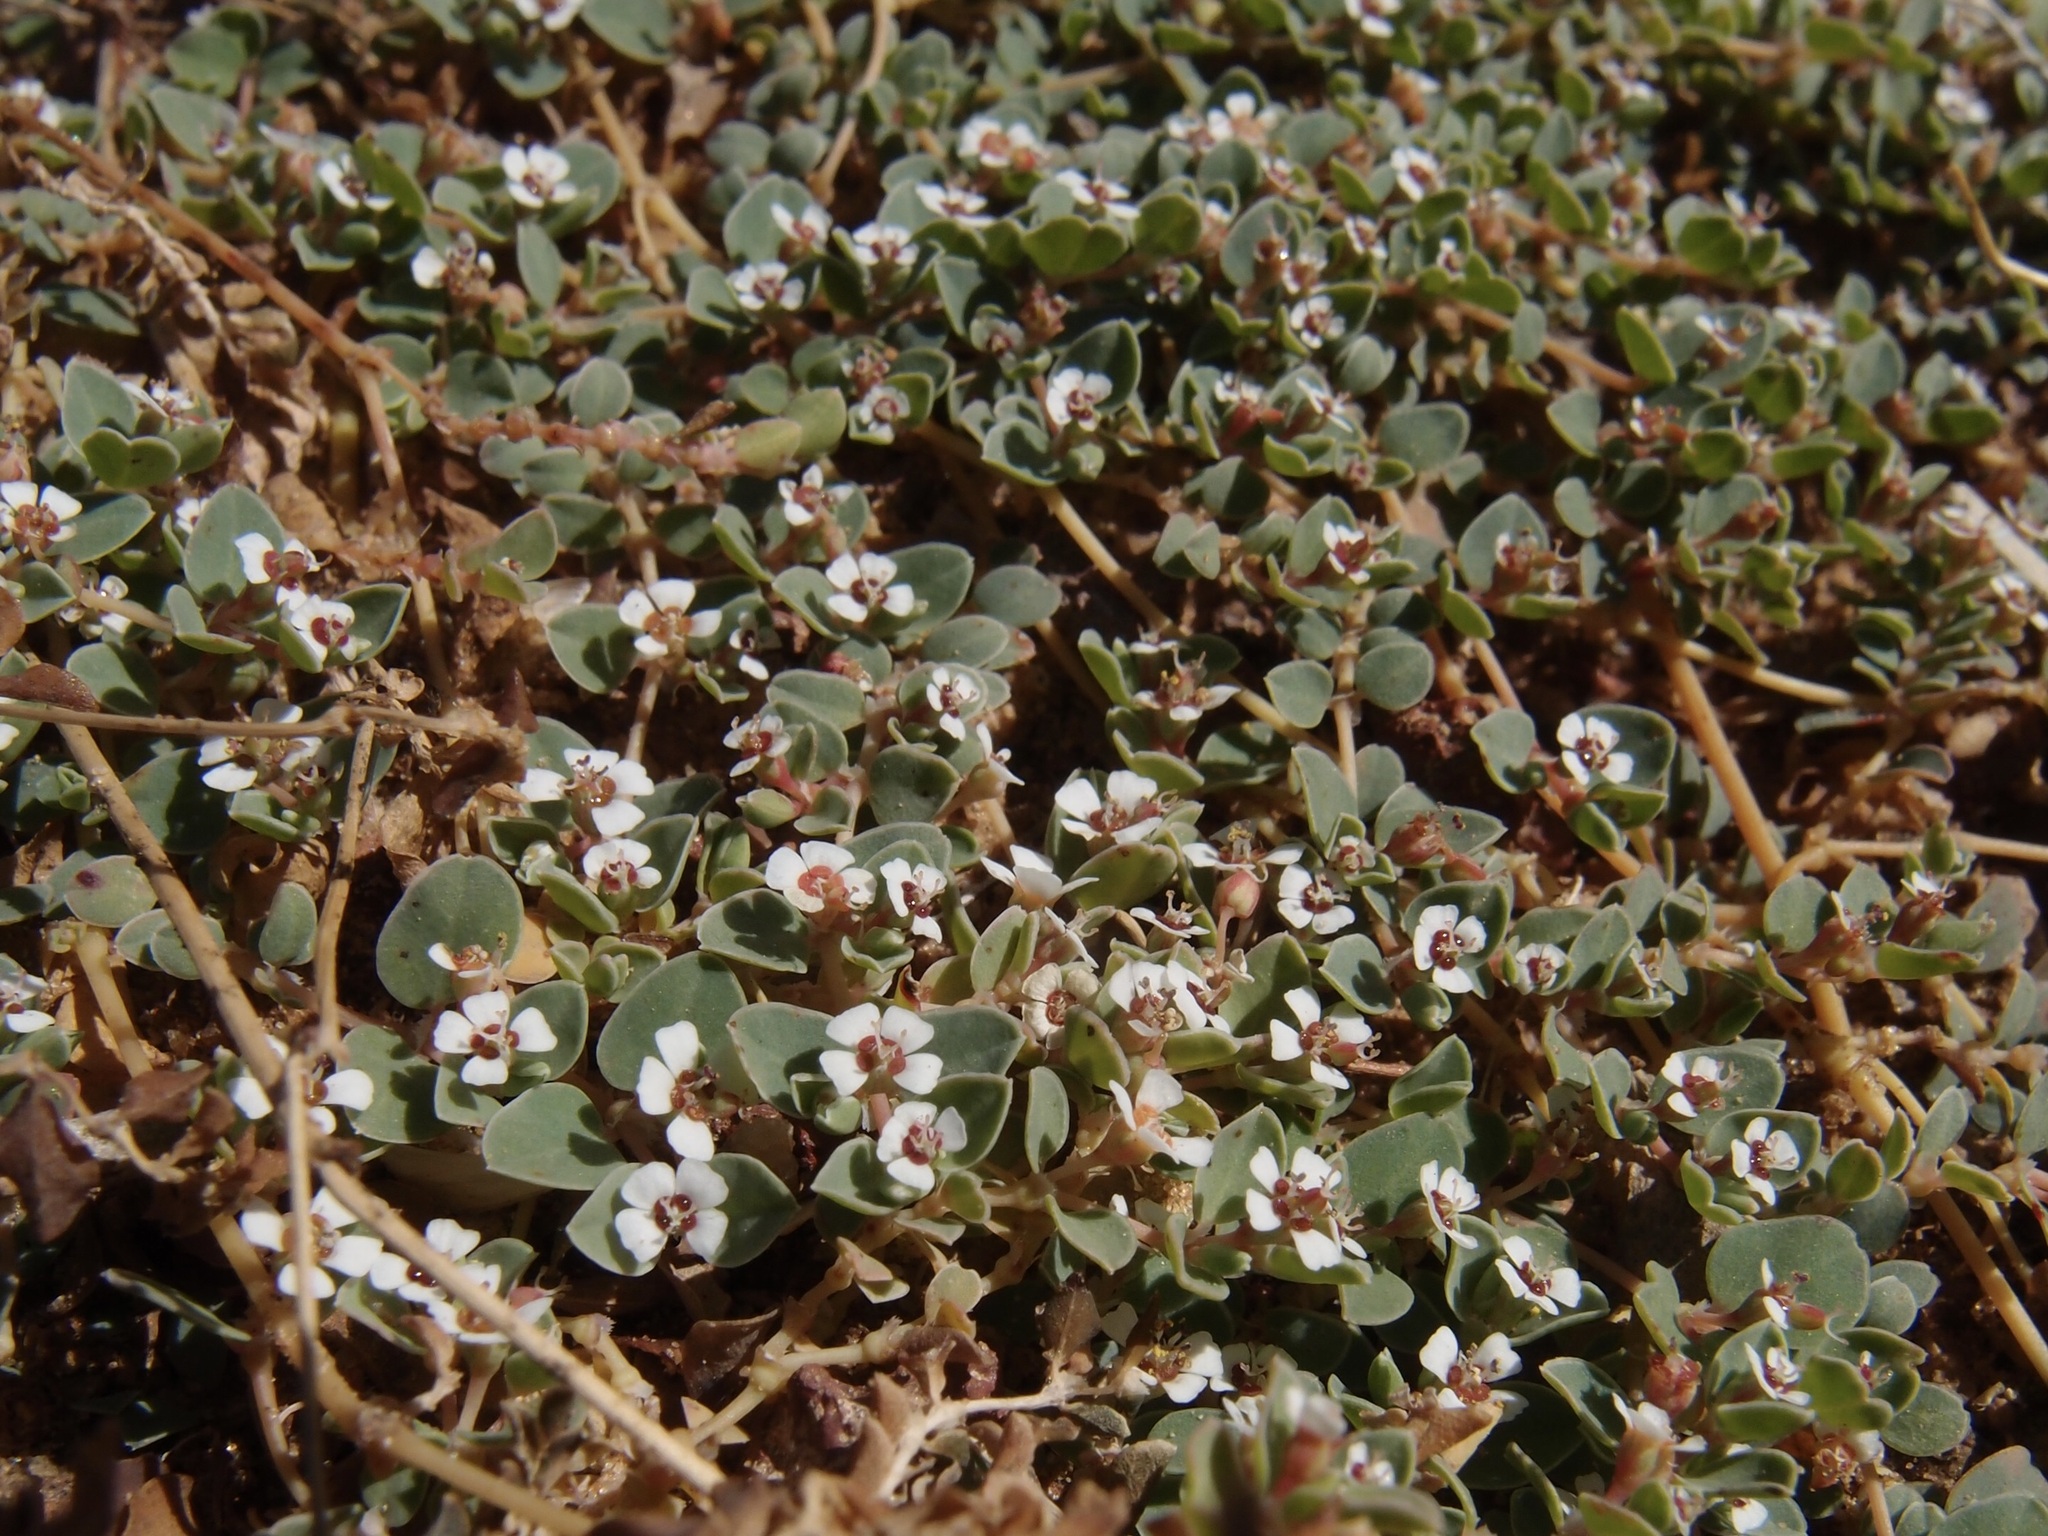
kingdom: Plantae
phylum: Tracheophyta
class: Magnoliopsida
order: Malpighiales
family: Euphorbiaceae
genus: Euphorbia
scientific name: Euphorbia albomarginata
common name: Whitemargin sandmat
